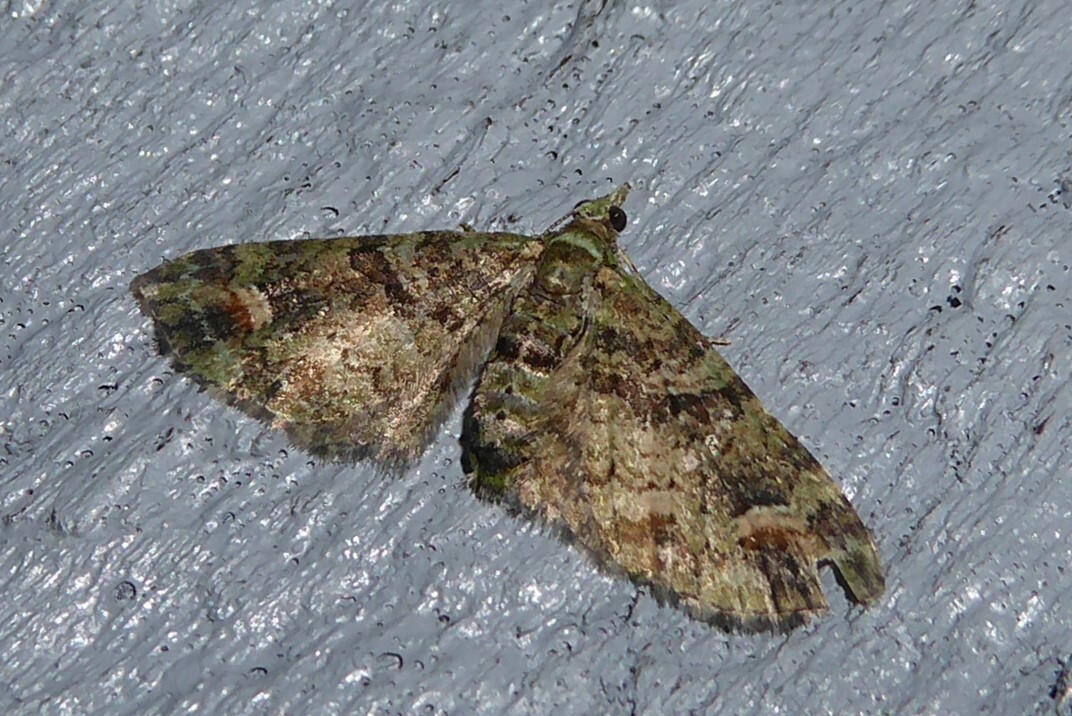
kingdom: Animalia
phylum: Arthropoda
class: Insecta
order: Lepidoptera
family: Geometridae
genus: Idaea
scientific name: Idaea mutanda
